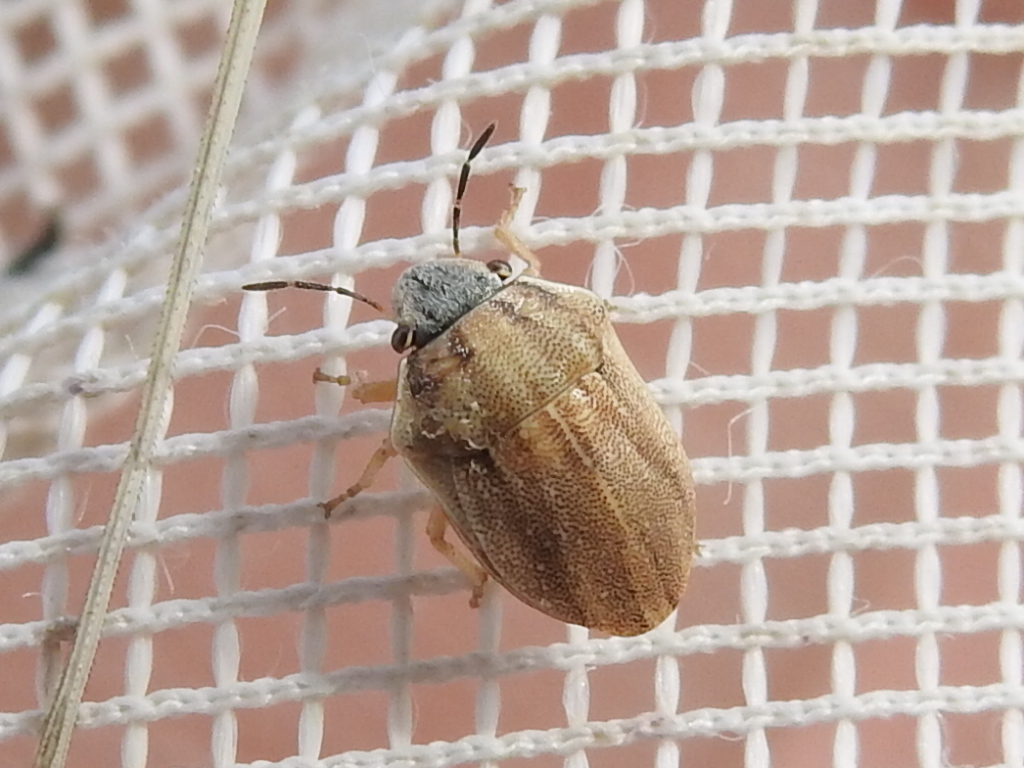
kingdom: Animalia
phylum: Arthropoda
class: Insecta
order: Hemiptera
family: Scutelleridae
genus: Homaemus
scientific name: Homaemus parvulus
